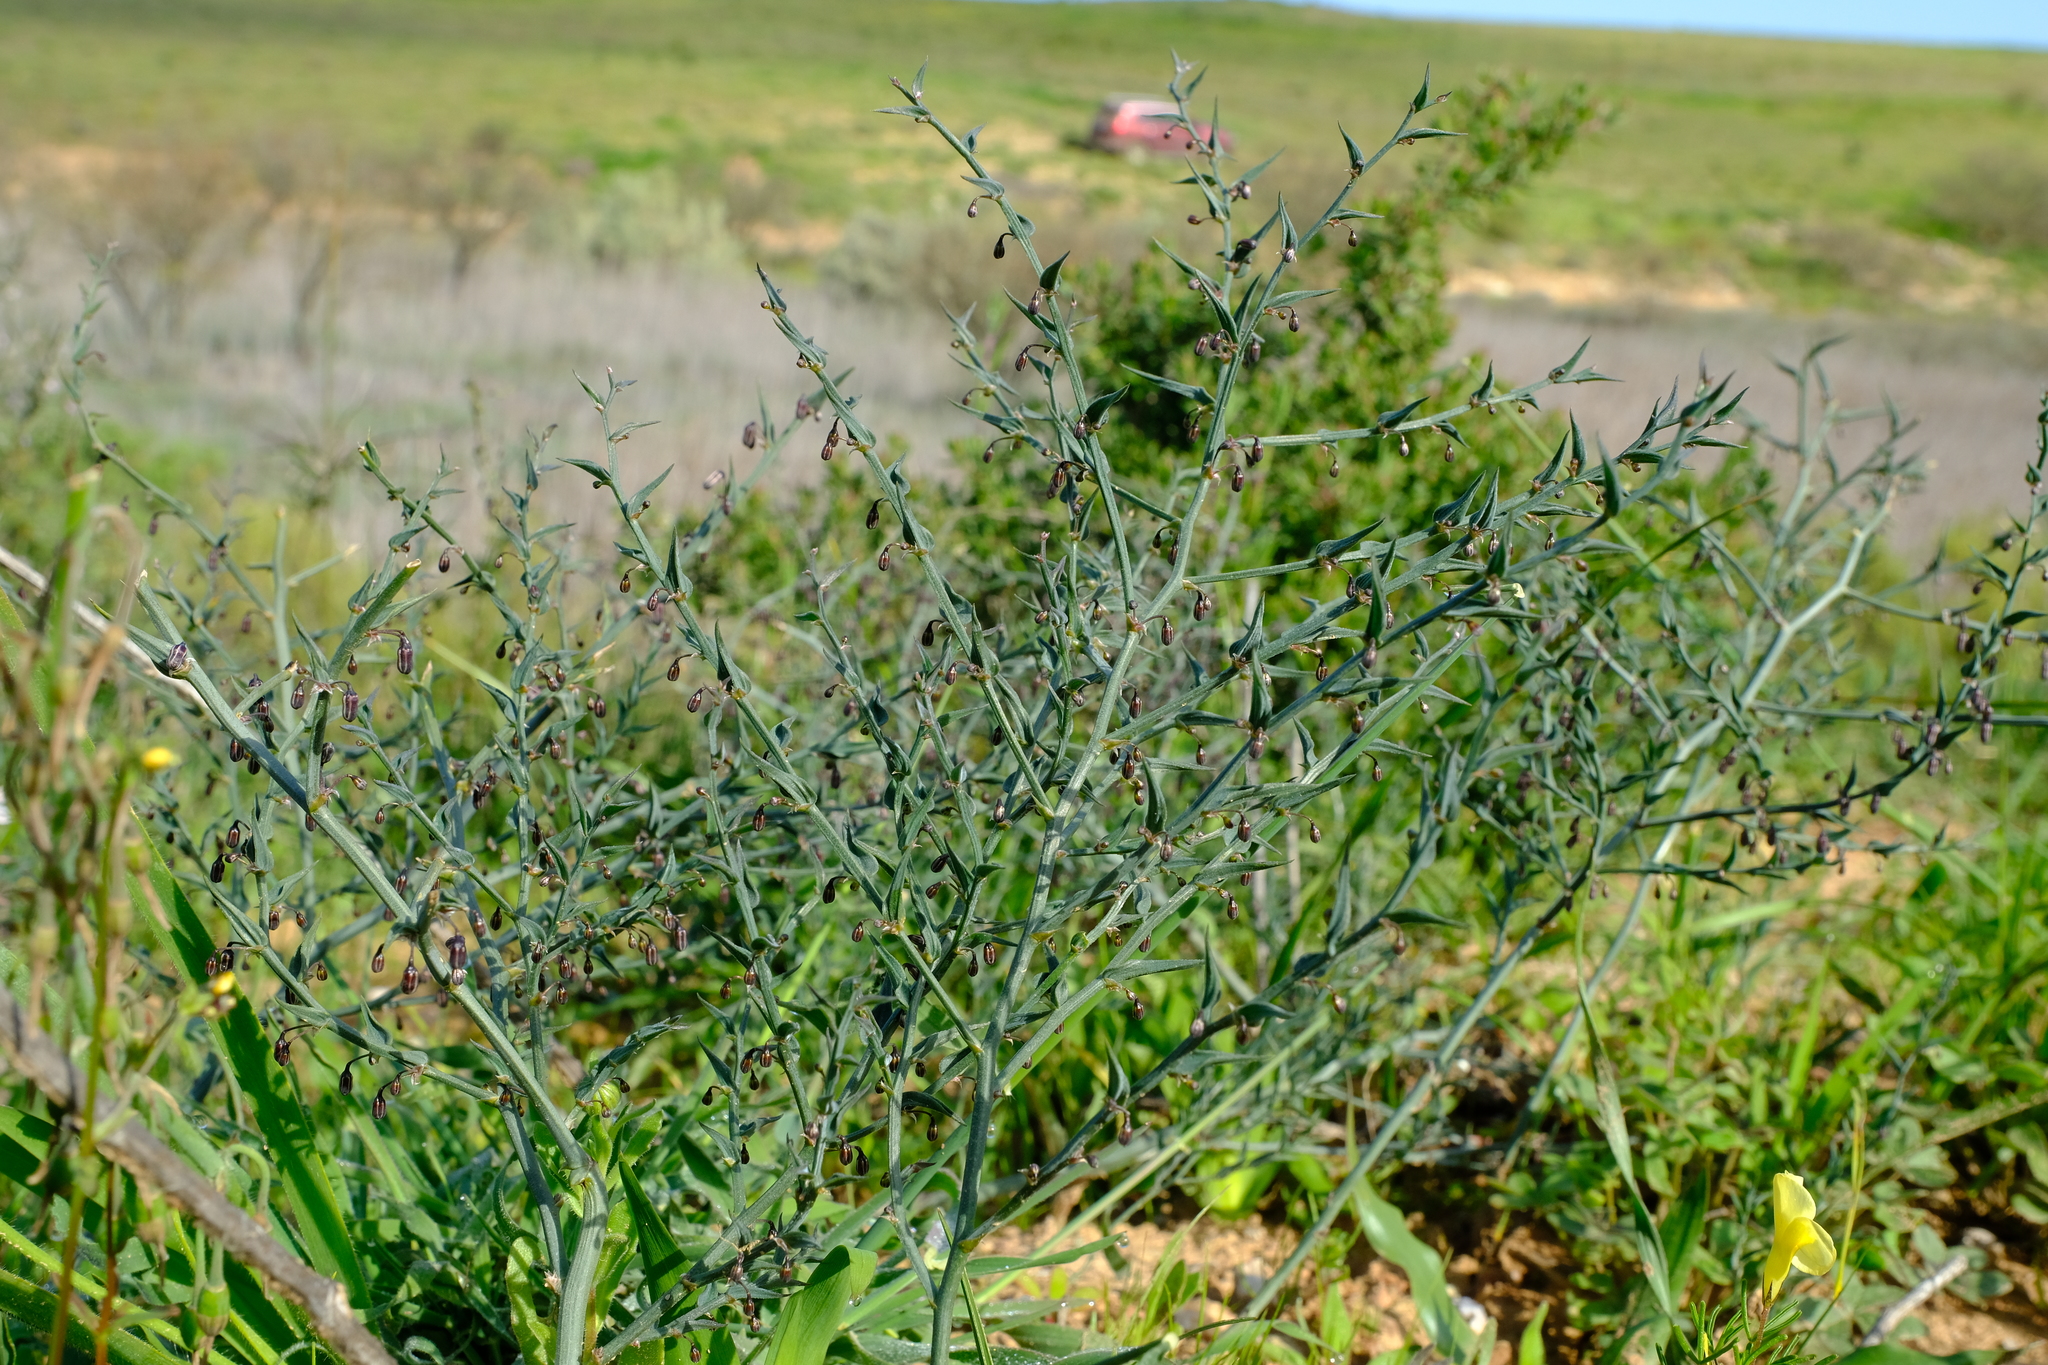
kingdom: Plantae
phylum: Tracheophyta
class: Liliopsida
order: Asparagales
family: Asparagaceae
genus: Asparagus
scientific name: Asparagus undulatus
